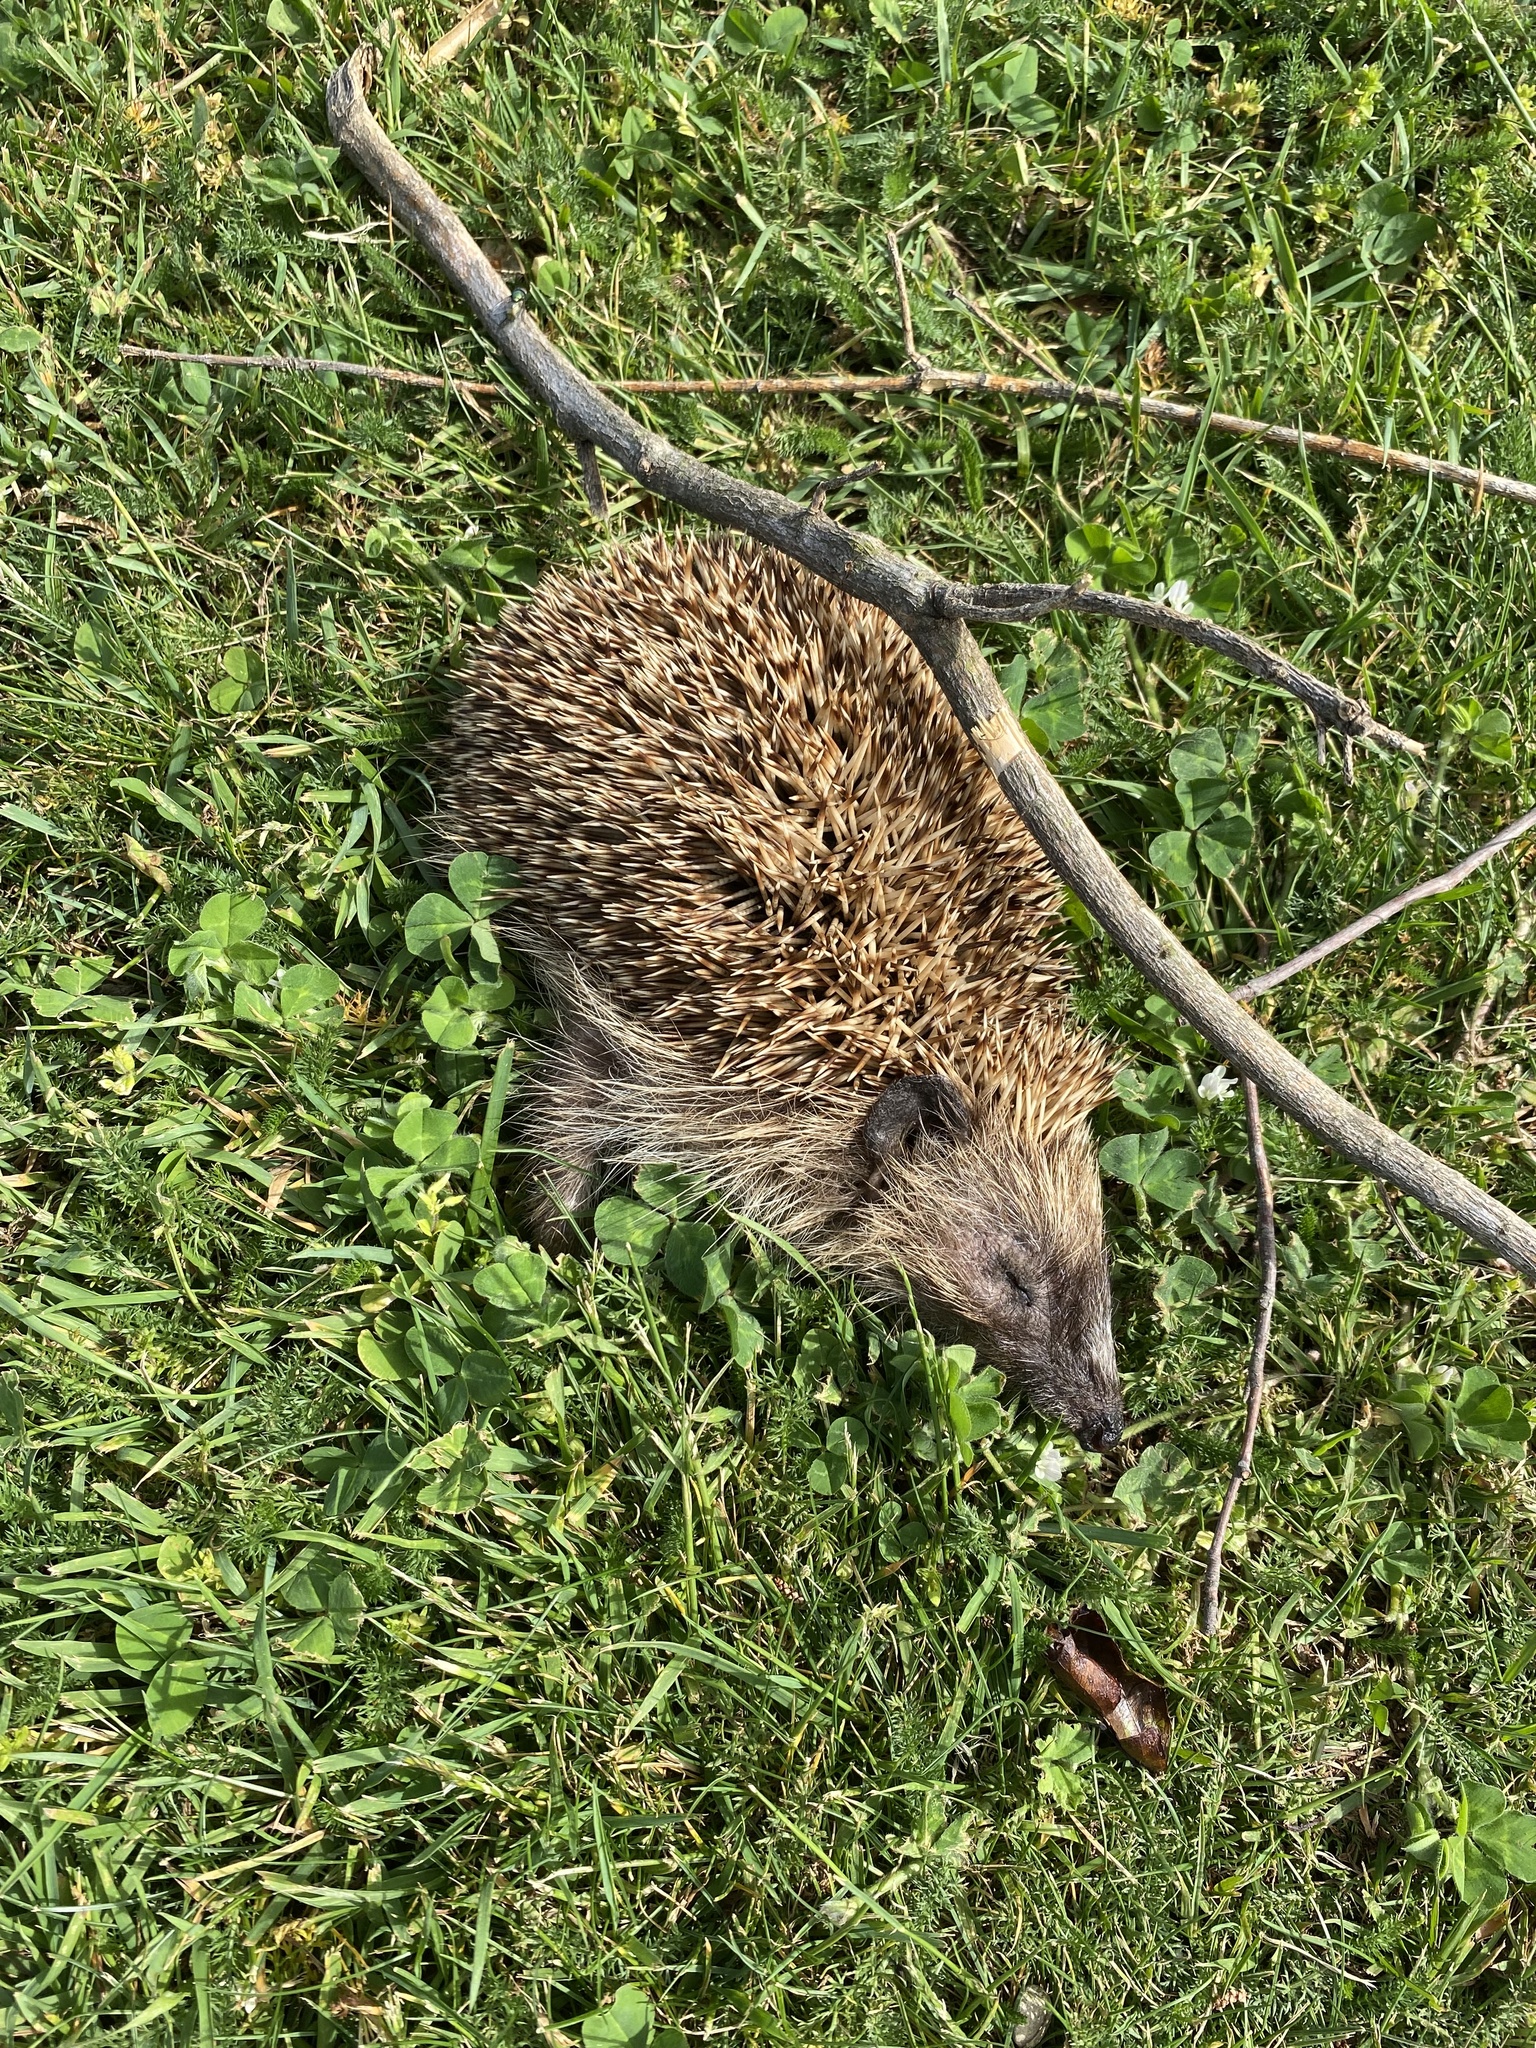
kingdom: Animalia
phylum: Chordata
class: Mammalia
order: Erinaceomorpha
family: Erinaceidae
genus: Erinaceus
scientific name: Erinaceus europaeus
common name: West european hedgehog
